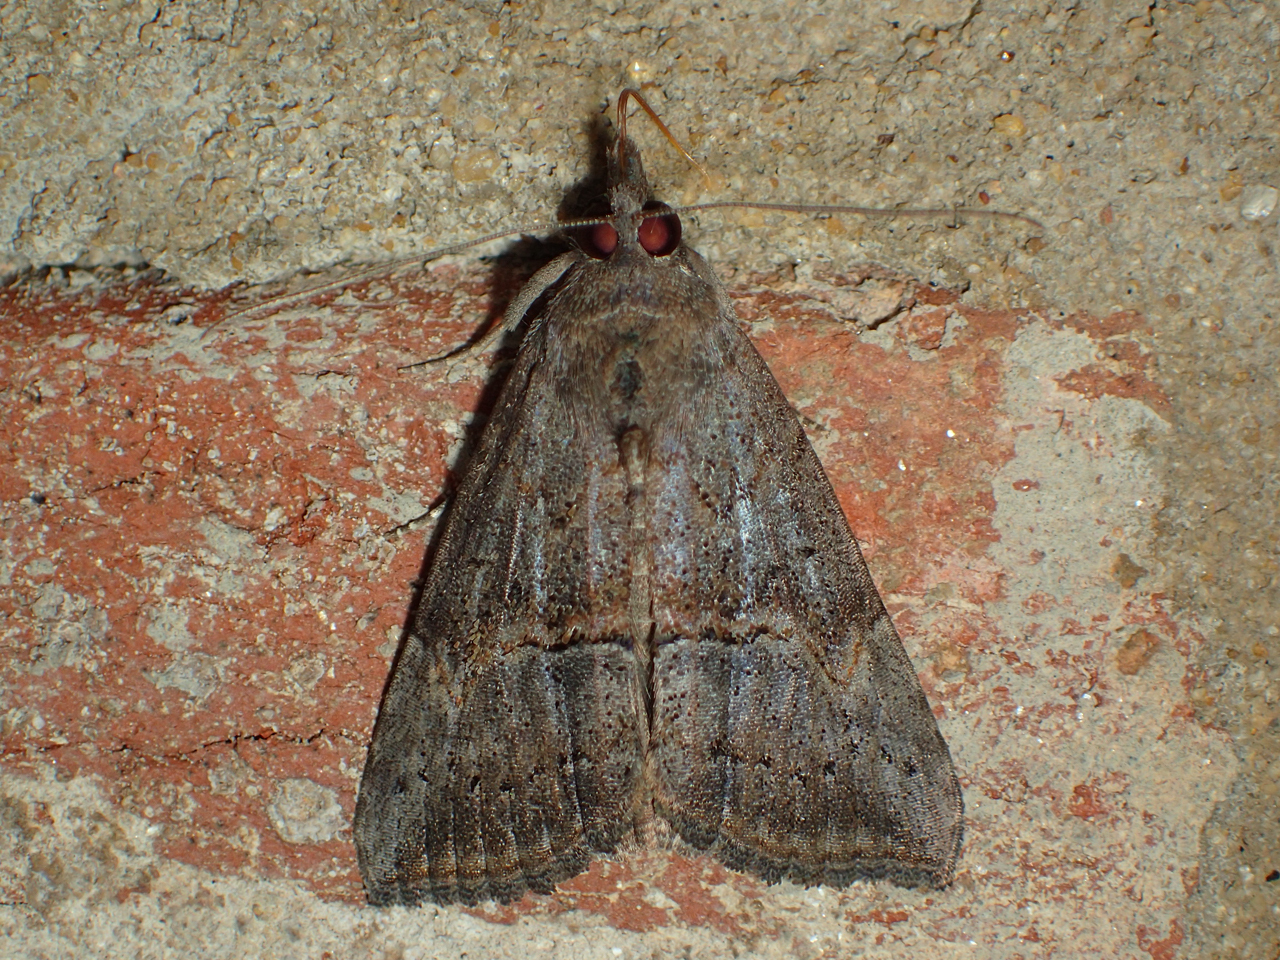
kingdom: Animalia
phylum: Arthropoda
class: Insecta
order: Lepidoptera
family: Erebidae
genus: Hypena
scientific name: Hypena scabra
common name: Green cloverworm
